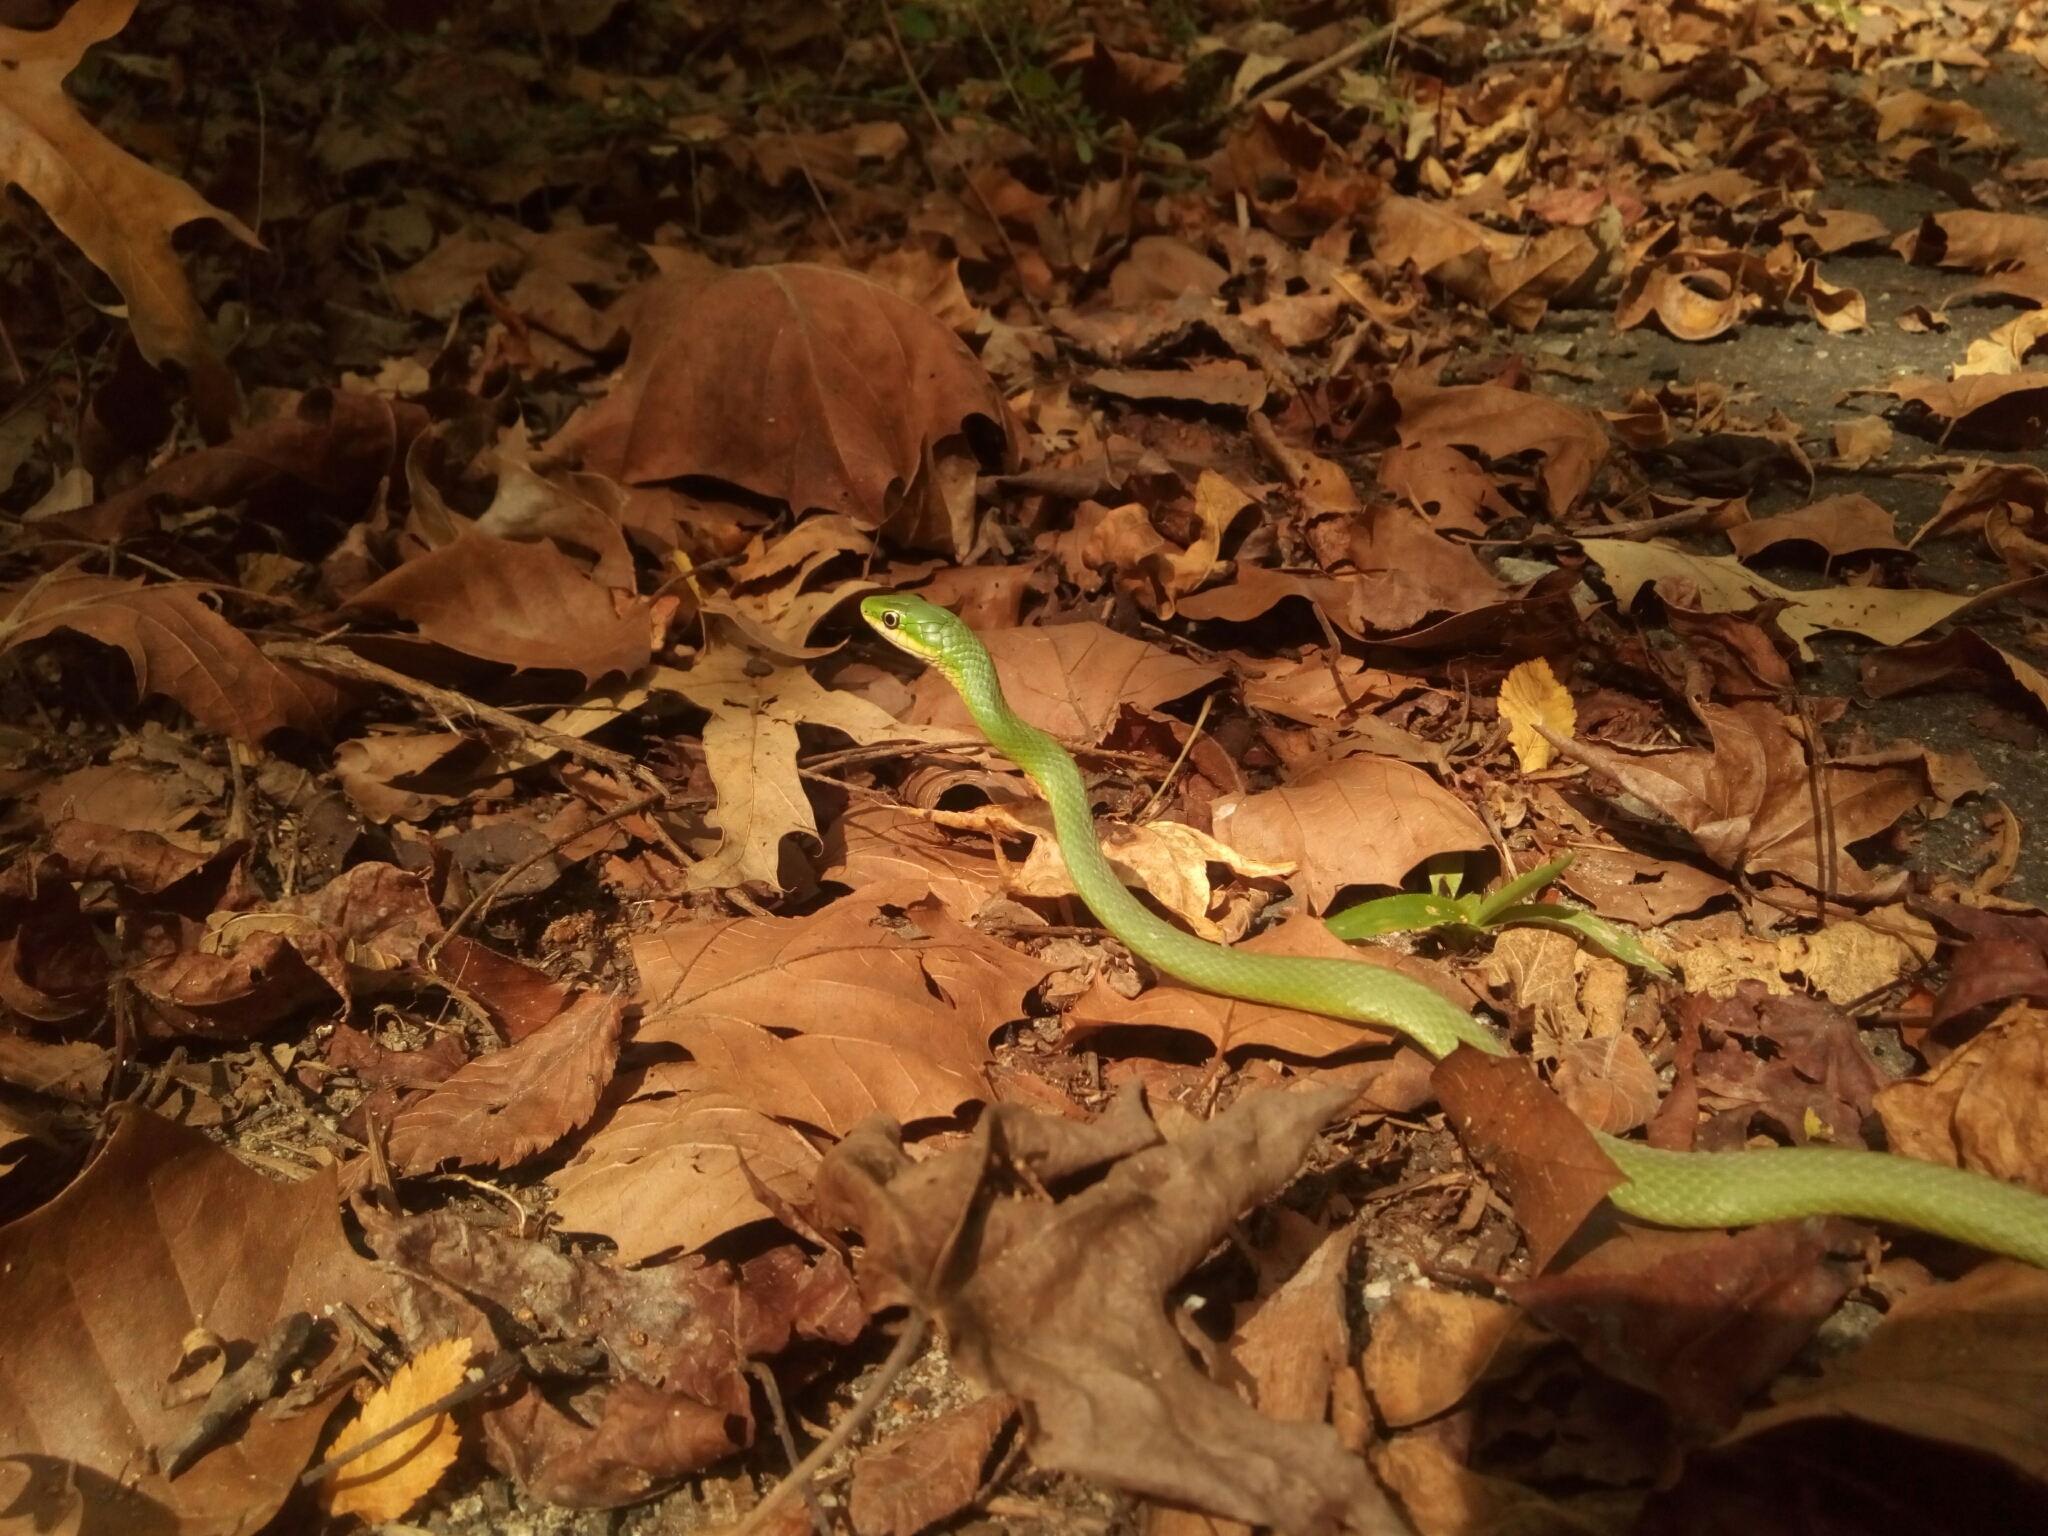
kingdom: Animalia
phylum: Chordata
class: Squamata
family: Colubridae
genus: Opheodrys
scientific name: Opheodrys aestivus
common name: Rough greensnake
